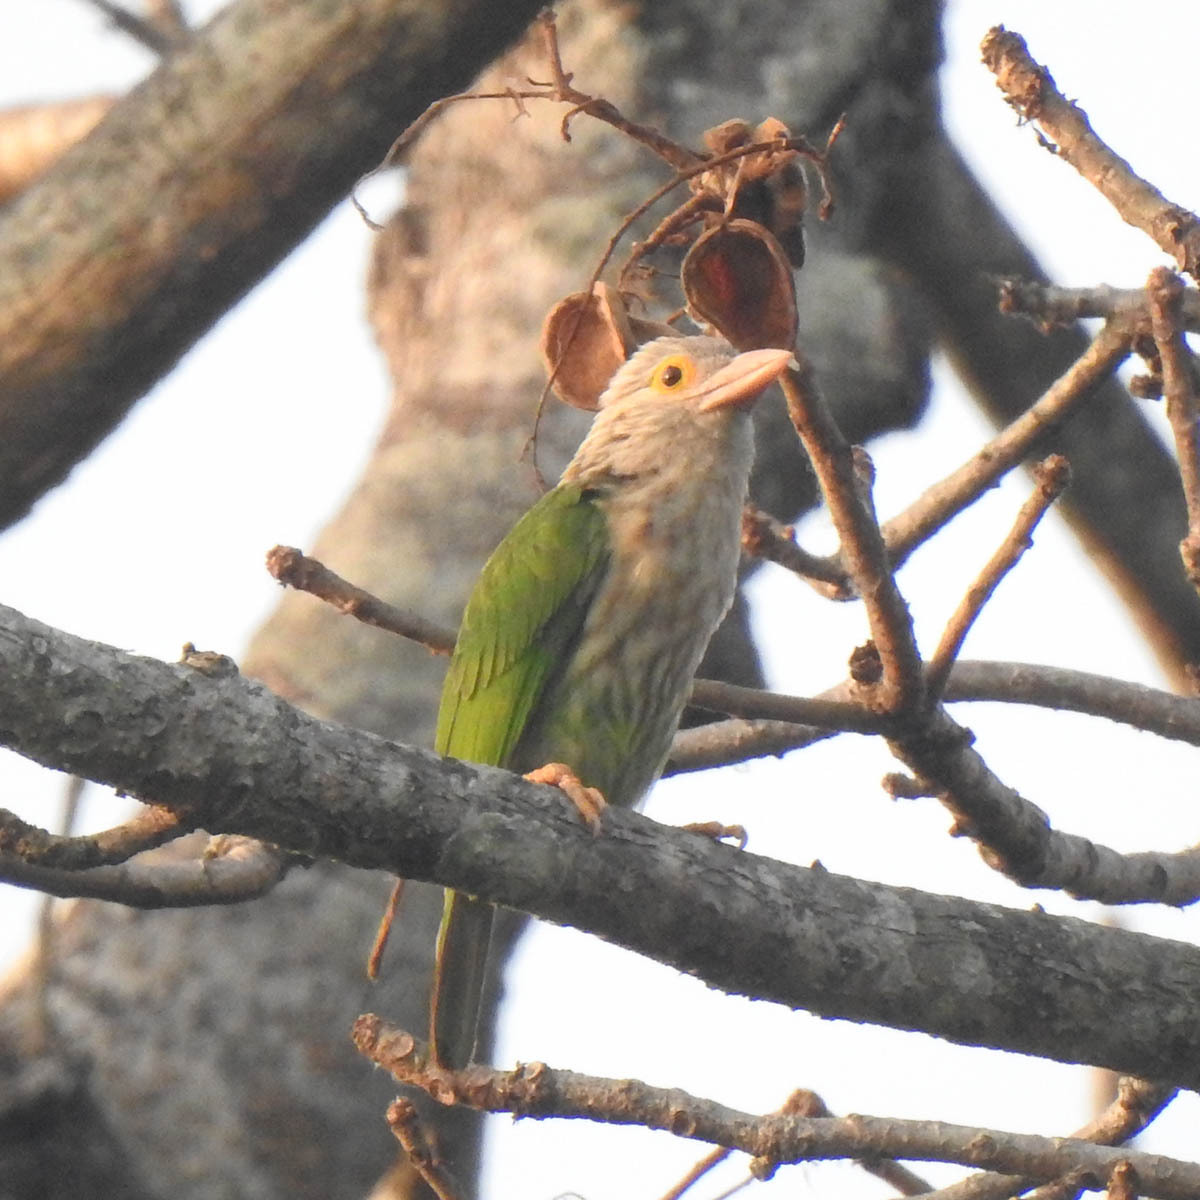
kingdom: Animalia
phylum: Chordata
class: Aves
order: Piciformes
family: Megalaimidae
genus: Psilopogon
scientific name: Psilopogon lineatus
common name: Lineated barbet
